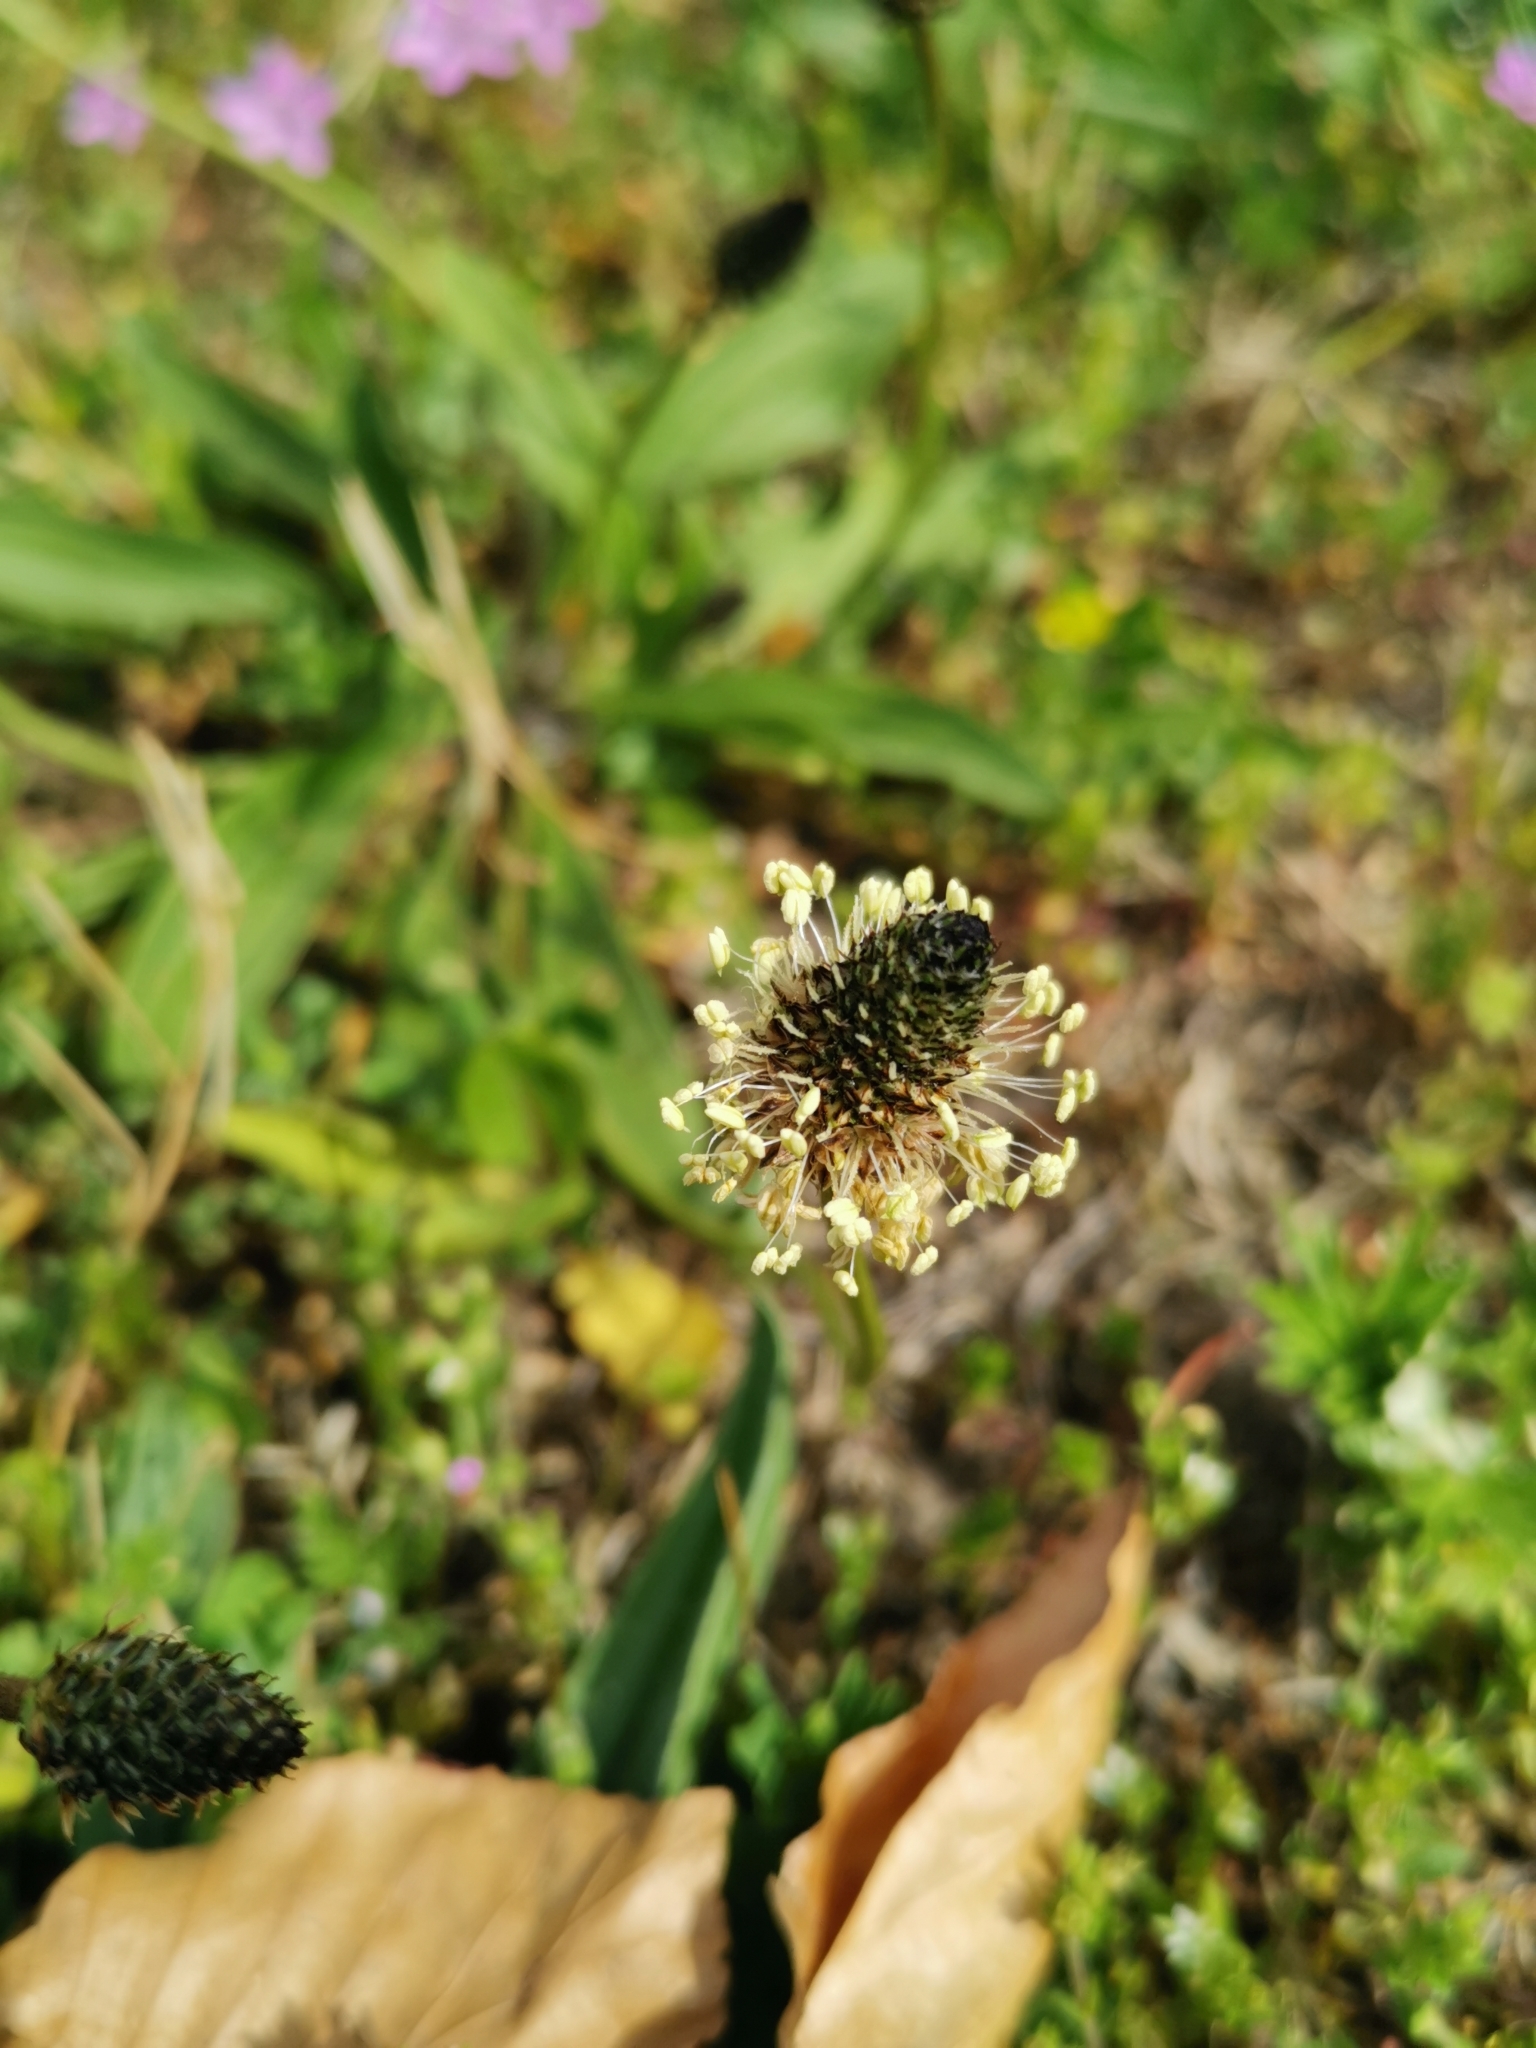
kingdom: Plantae
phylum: Tracheophyta
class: Magnoliopsida
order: Lamiales
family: Plantaginaceae
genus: Plantago
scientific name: Plantago lanceolata
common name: Ribwort plantain
